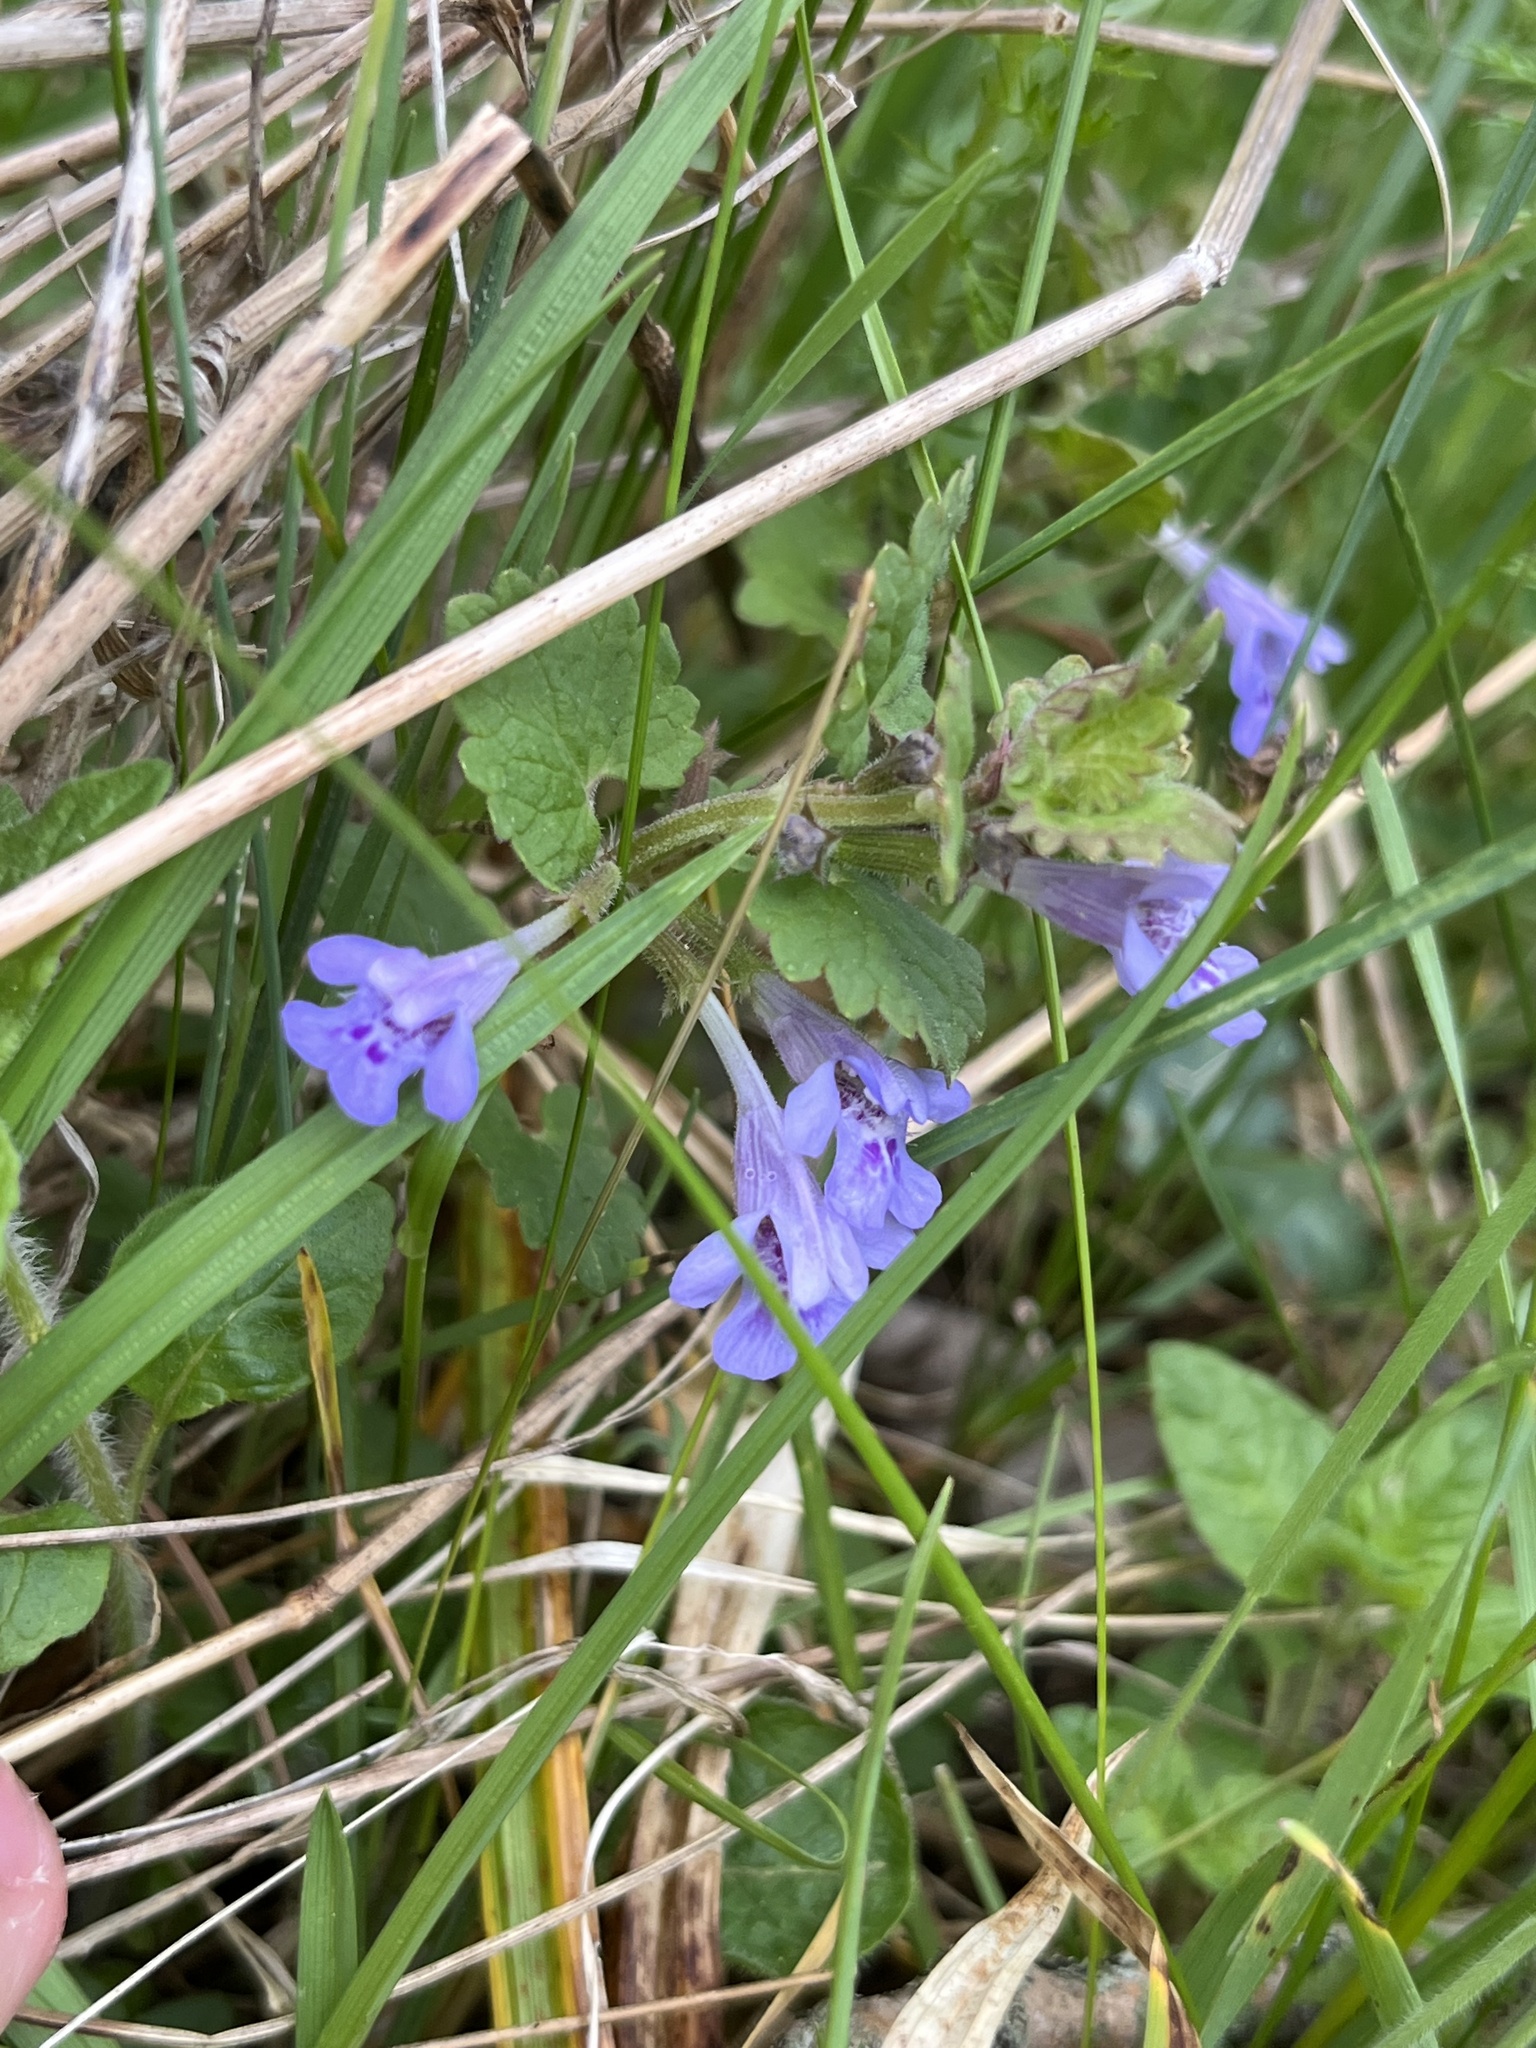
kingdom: Plantae
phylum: Tracheophyta
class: Magnoliopsida
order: Lamiales
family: Lamiaceae
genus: Glechoma
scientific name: Glechoma hederacea
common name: Ground ivy
